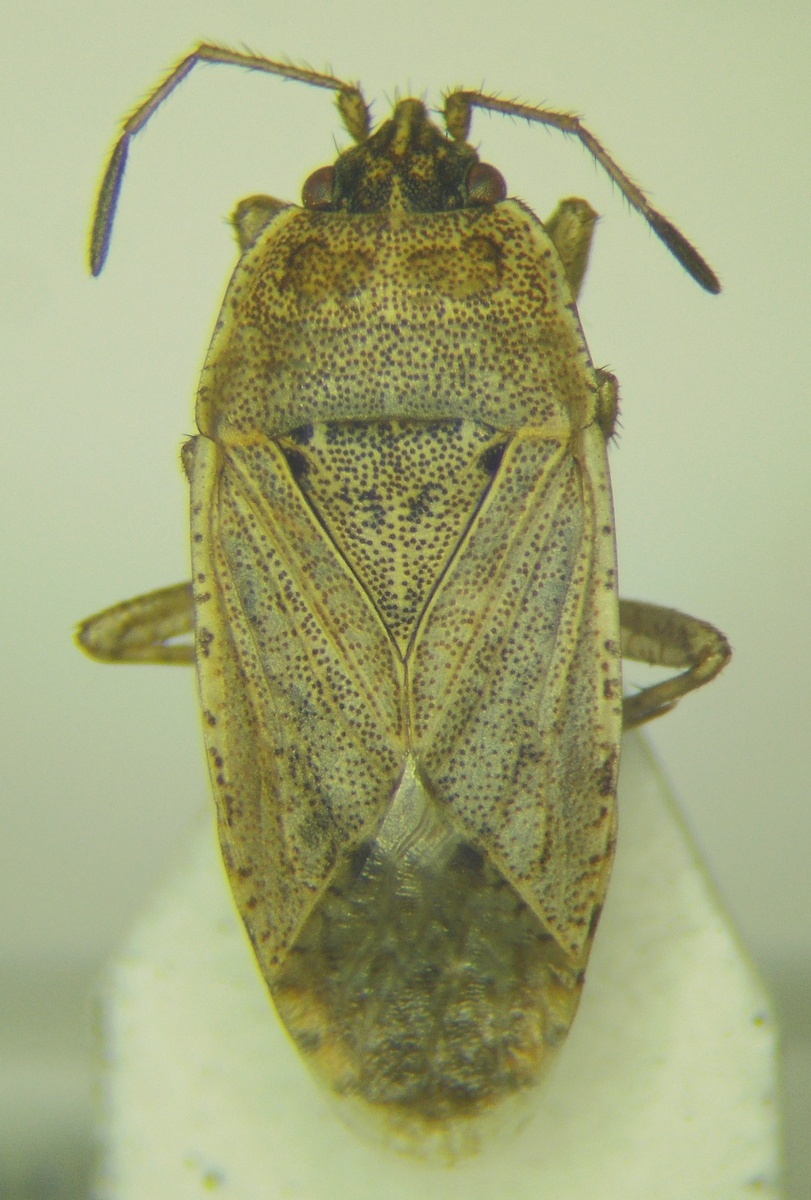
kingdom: Animalia
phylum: Arthropoda
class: Insecta
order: Hemiptera
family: Rhyparochromidae
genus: Emblethis
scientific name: Emblethis denticollis
